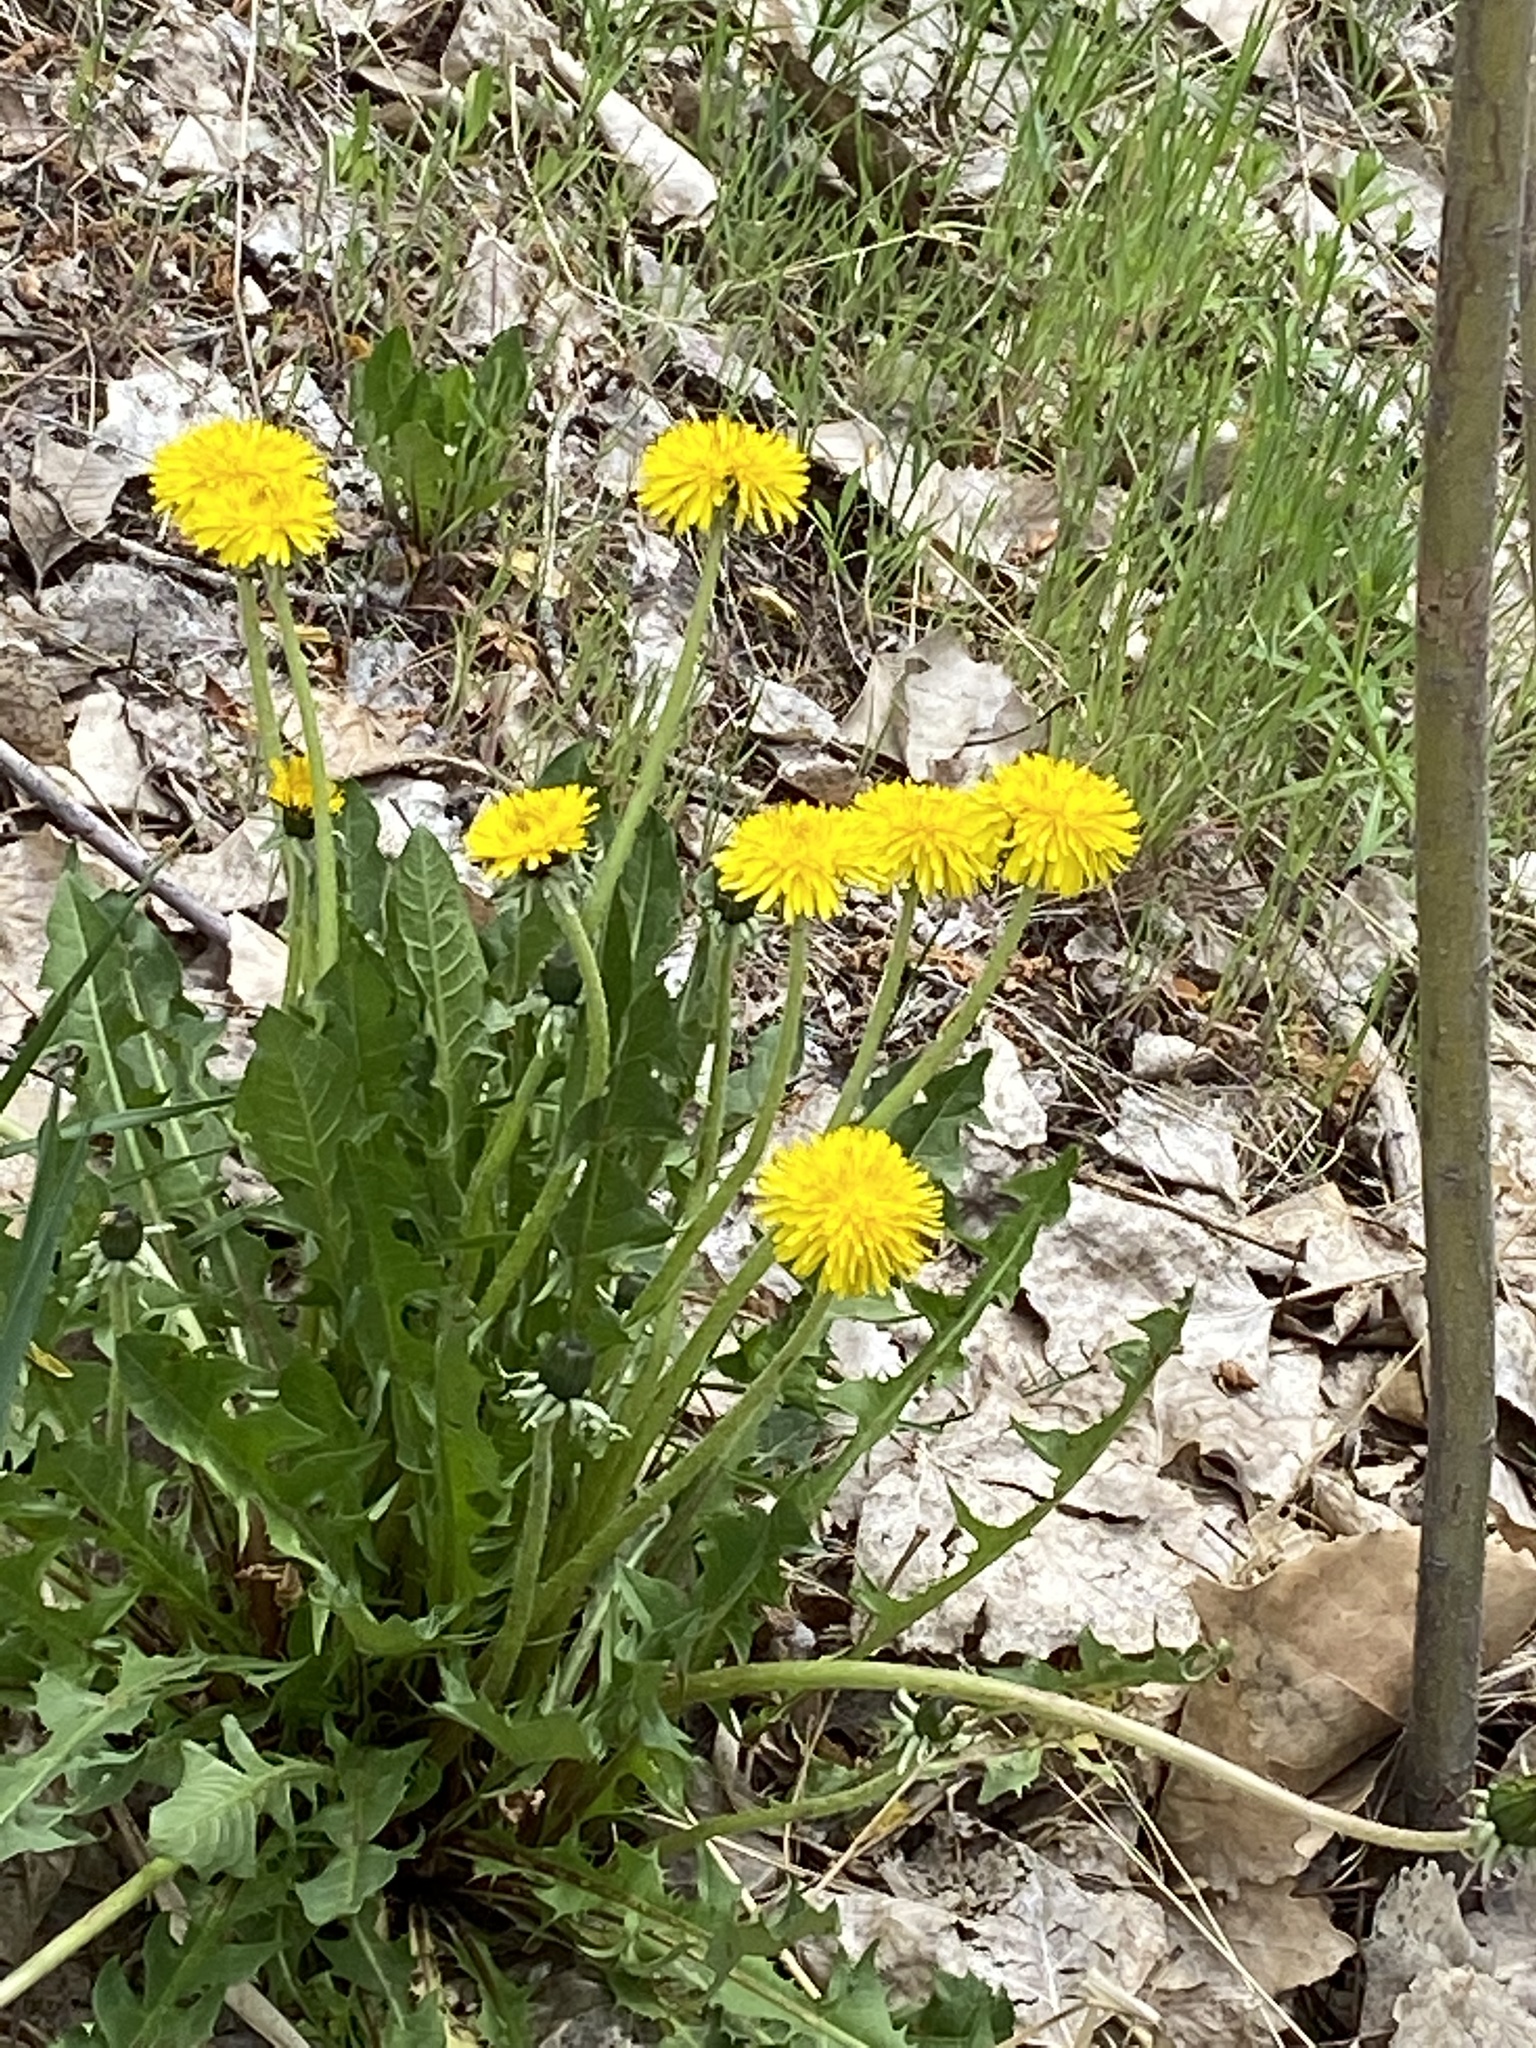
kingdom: Plantae
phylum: Tracheophyta
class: Magnoliopsida
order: Asterales
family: Asteraceae
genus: Taraxacum
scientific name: Taraxacum officinale
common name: Common dandelion
